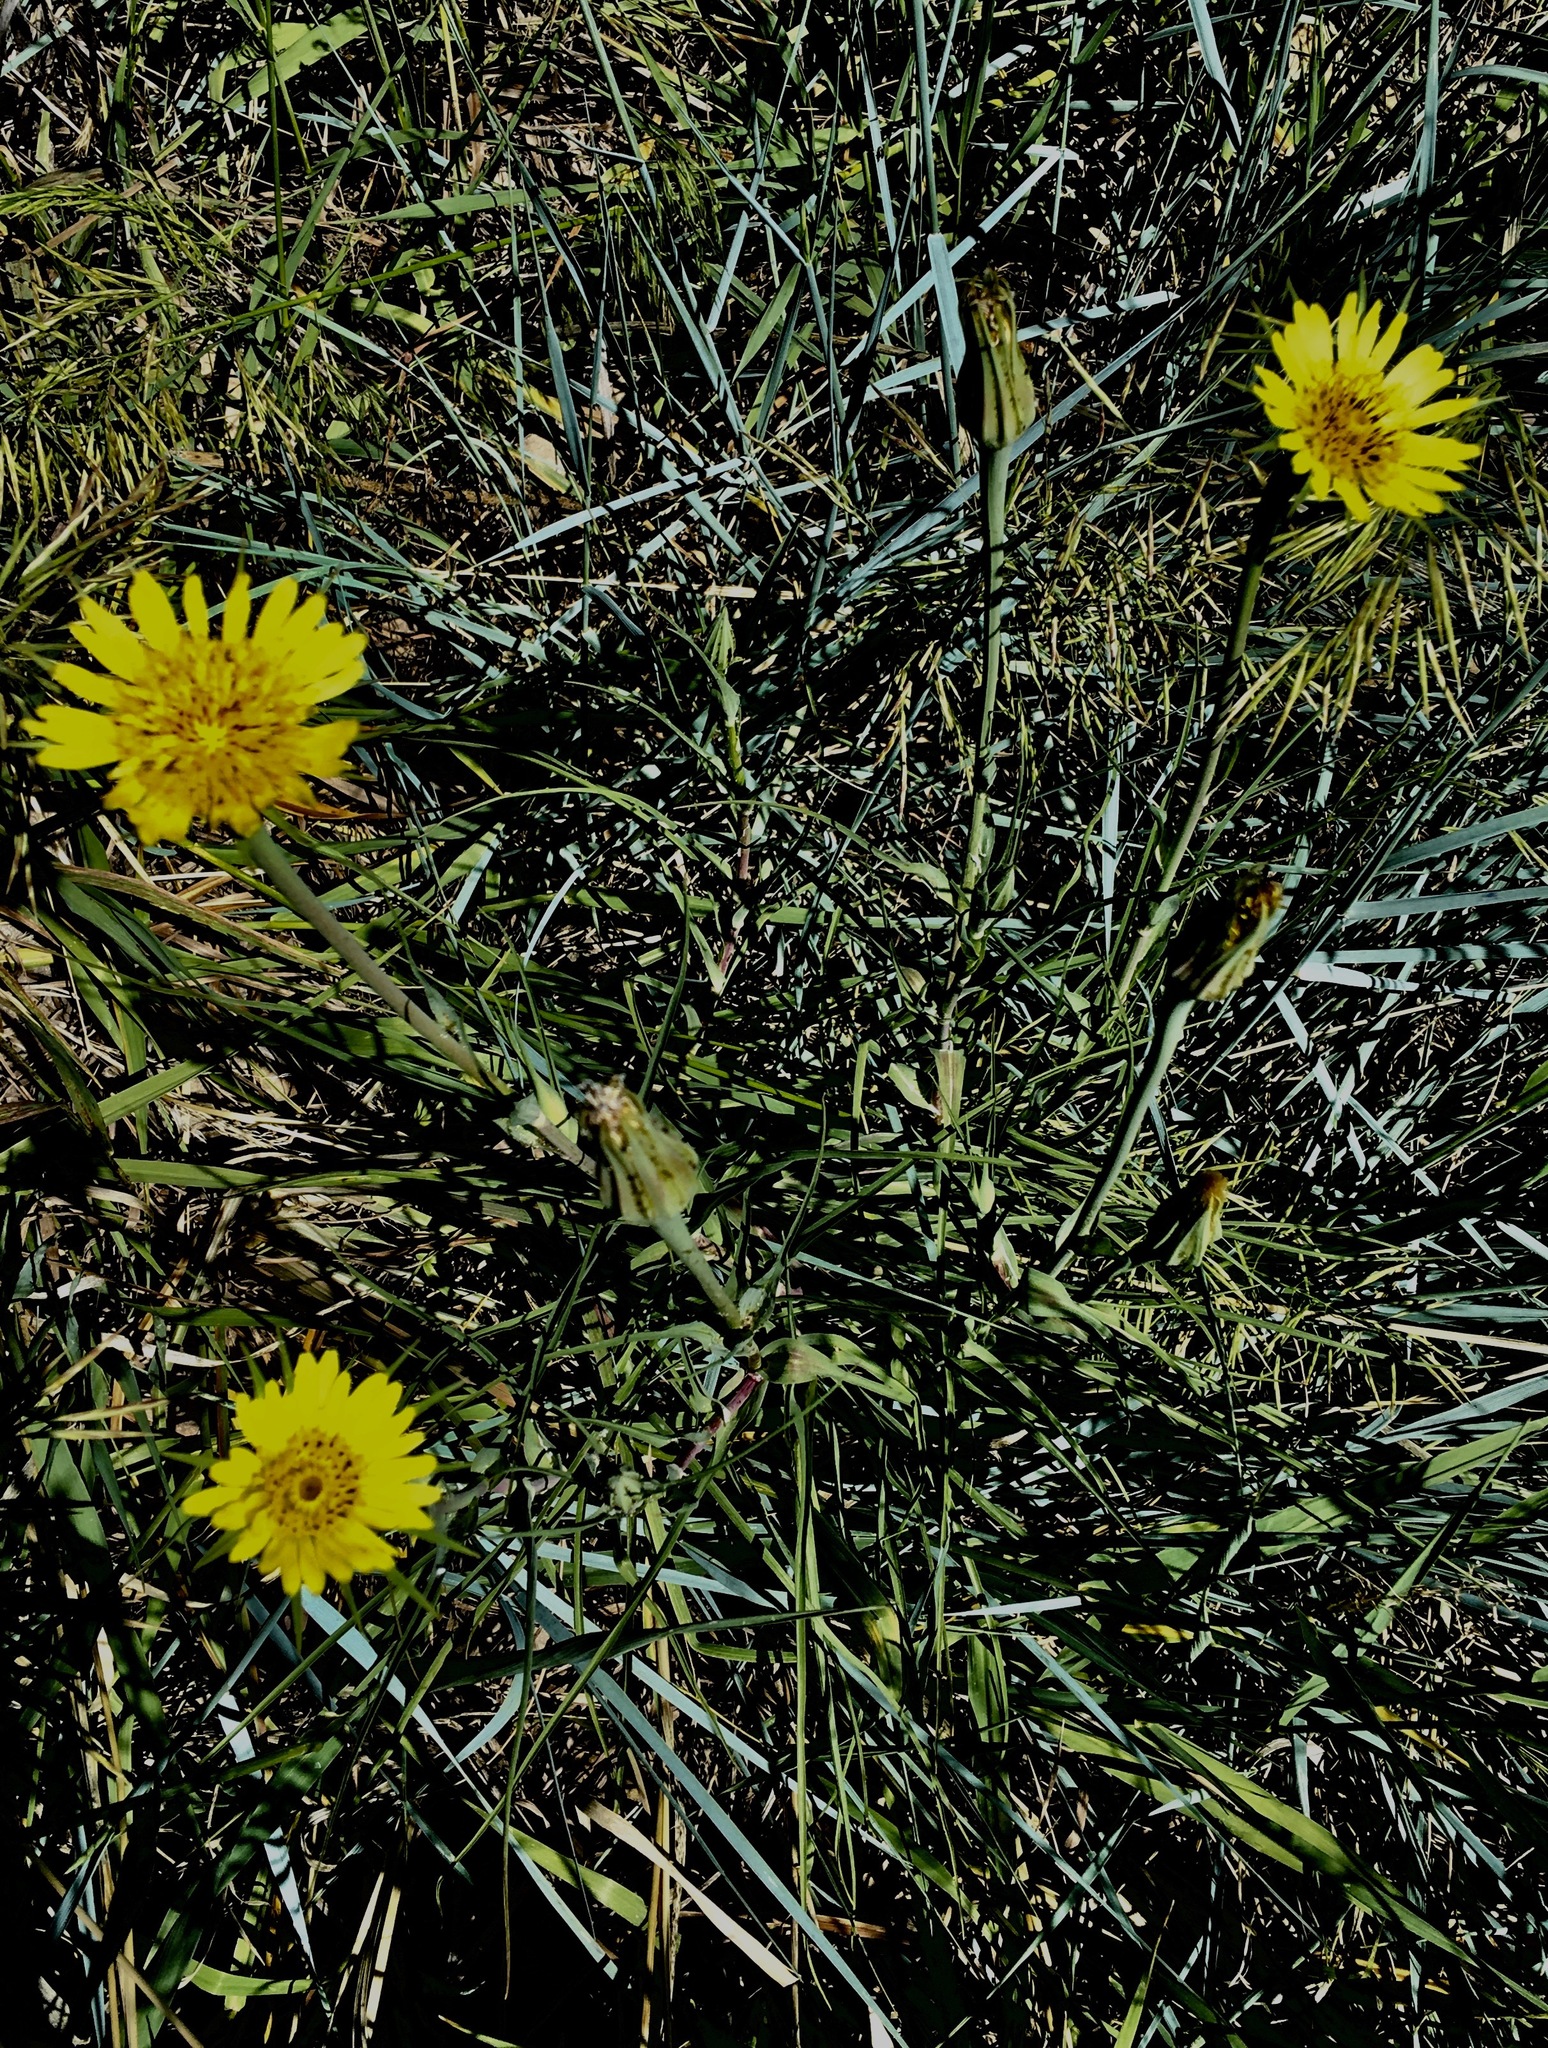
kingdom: Plantae
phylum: Tracheophyta
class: Magnoliopsida
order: Asterales
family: Asteraceae
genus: Tragopogon
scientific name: Tragopogon dubius
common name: Yellow salsify
